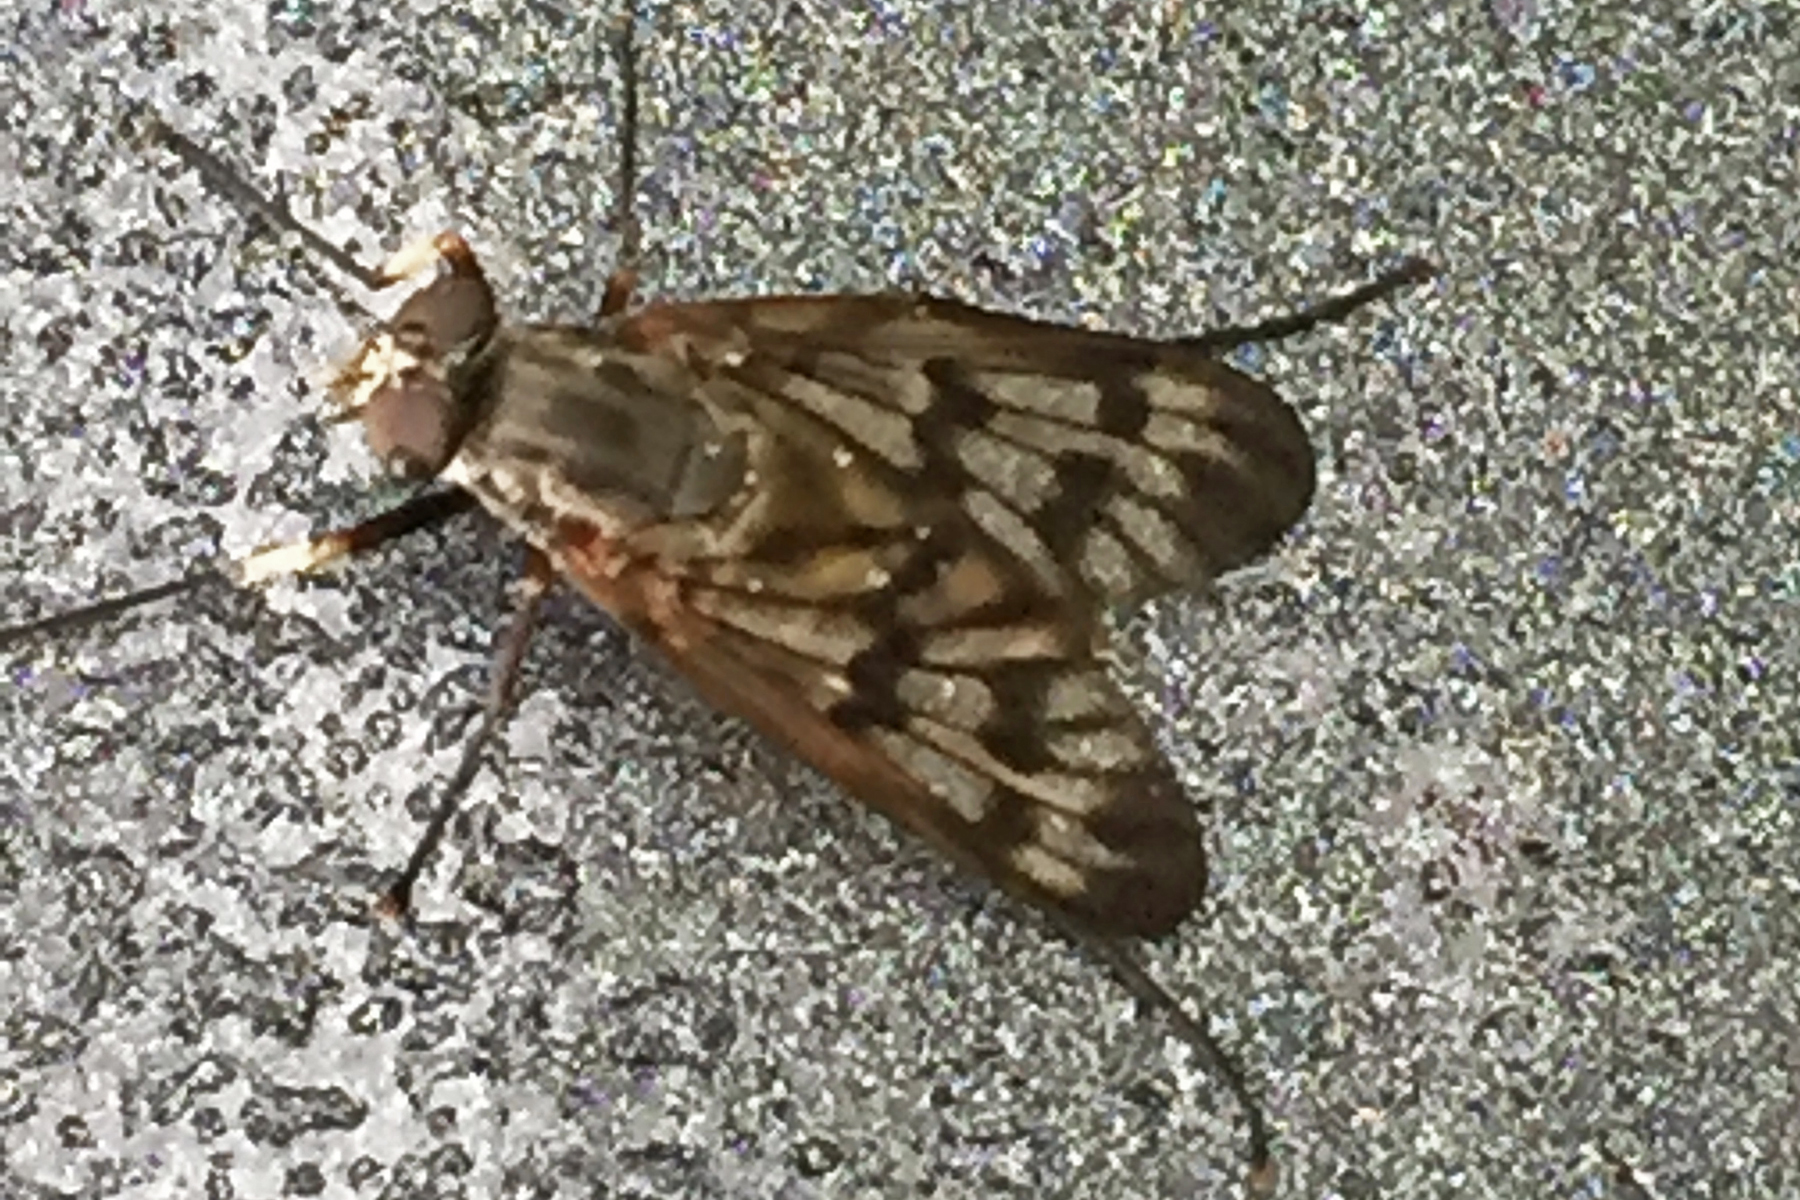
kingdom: Animalia
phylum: Arthropoda
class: Insecta
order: Diptera
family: Rhagionidae
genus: Rhagio
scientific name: Rhagio mystaceus
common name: Common snipe fly
